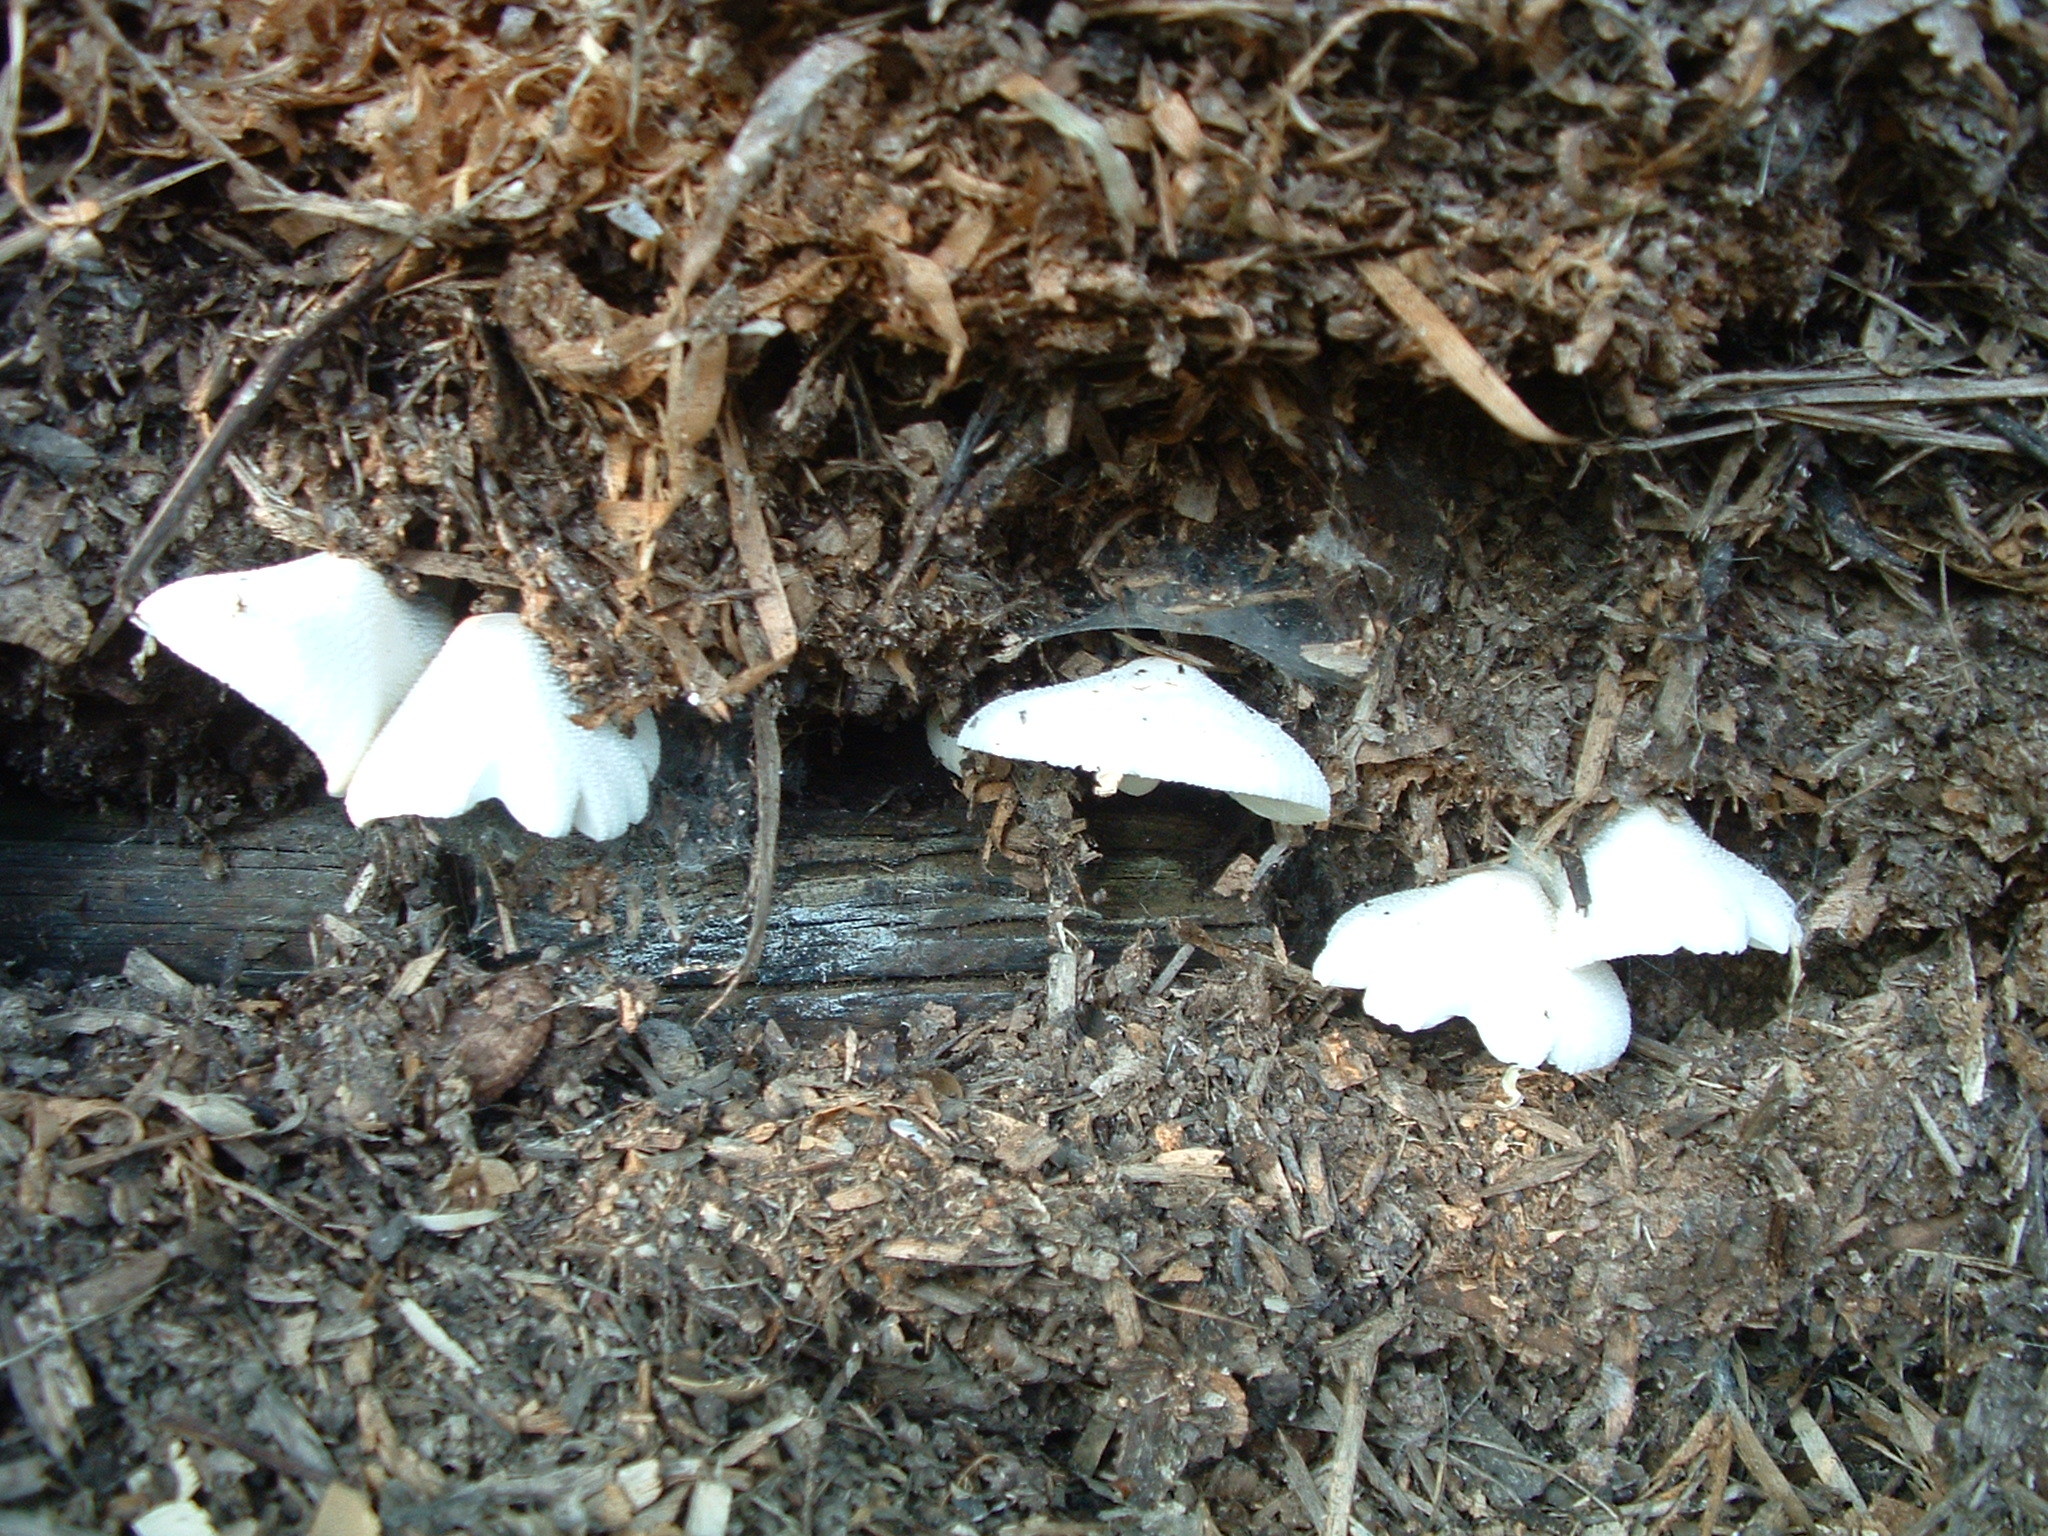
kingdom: Fungi
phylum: Basidiomycota
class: Agaricomycetes
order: Agaricales
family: Agaricaceae
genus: Leucocoprinus
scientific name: Leucocoprinus cepistipes
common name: Onion-stalk parasol
